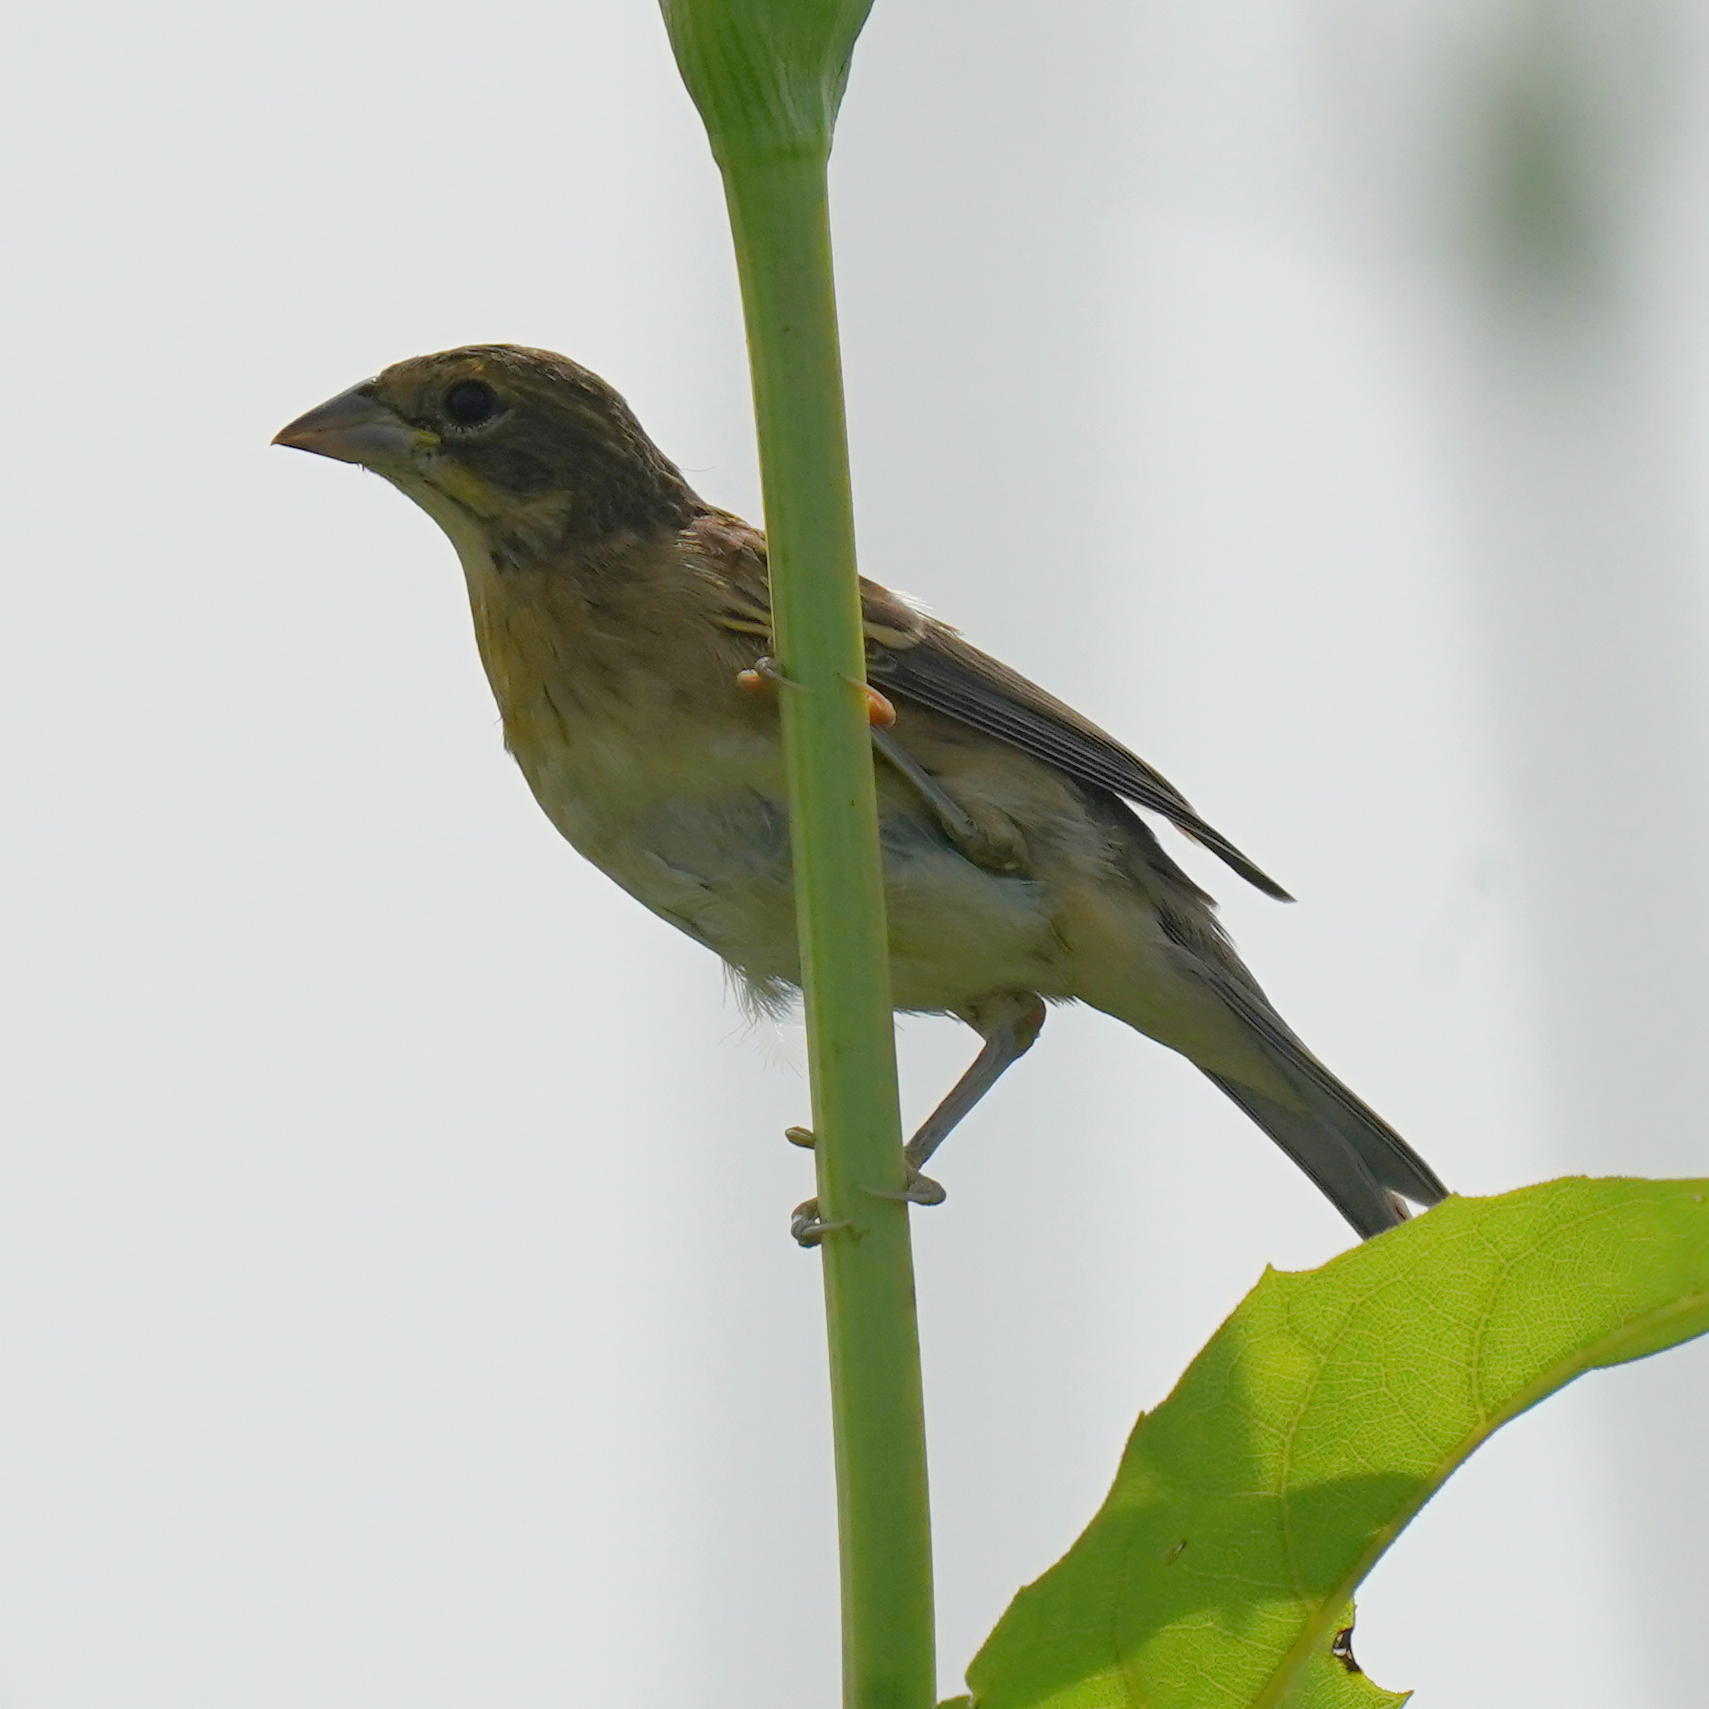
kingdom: Animalia
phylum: Chordata
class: Aves
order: Passeriformes
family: Cardinalidae
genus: Spiza
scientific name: Spiza americana
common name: Dickcissel
